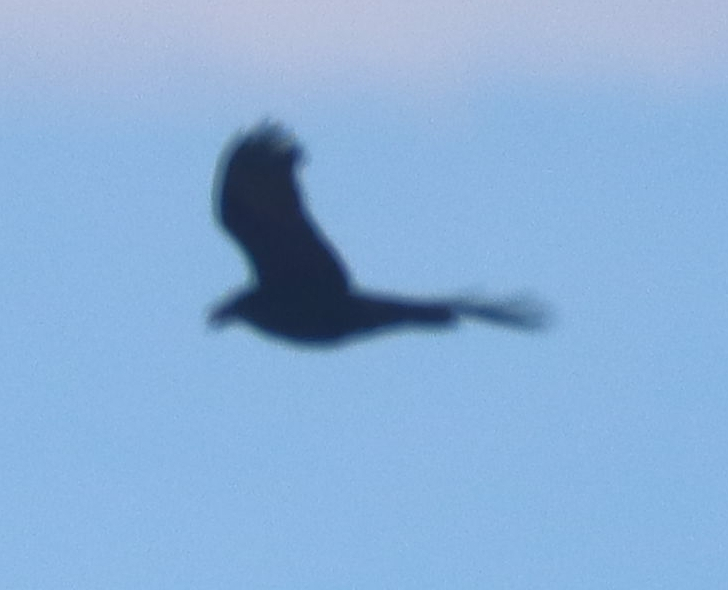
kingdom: Animalia
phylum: Chordata
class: Aves
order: Passeriformes
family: Corvidae
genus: Corvus
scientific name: Corvus corax
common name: Common raven
